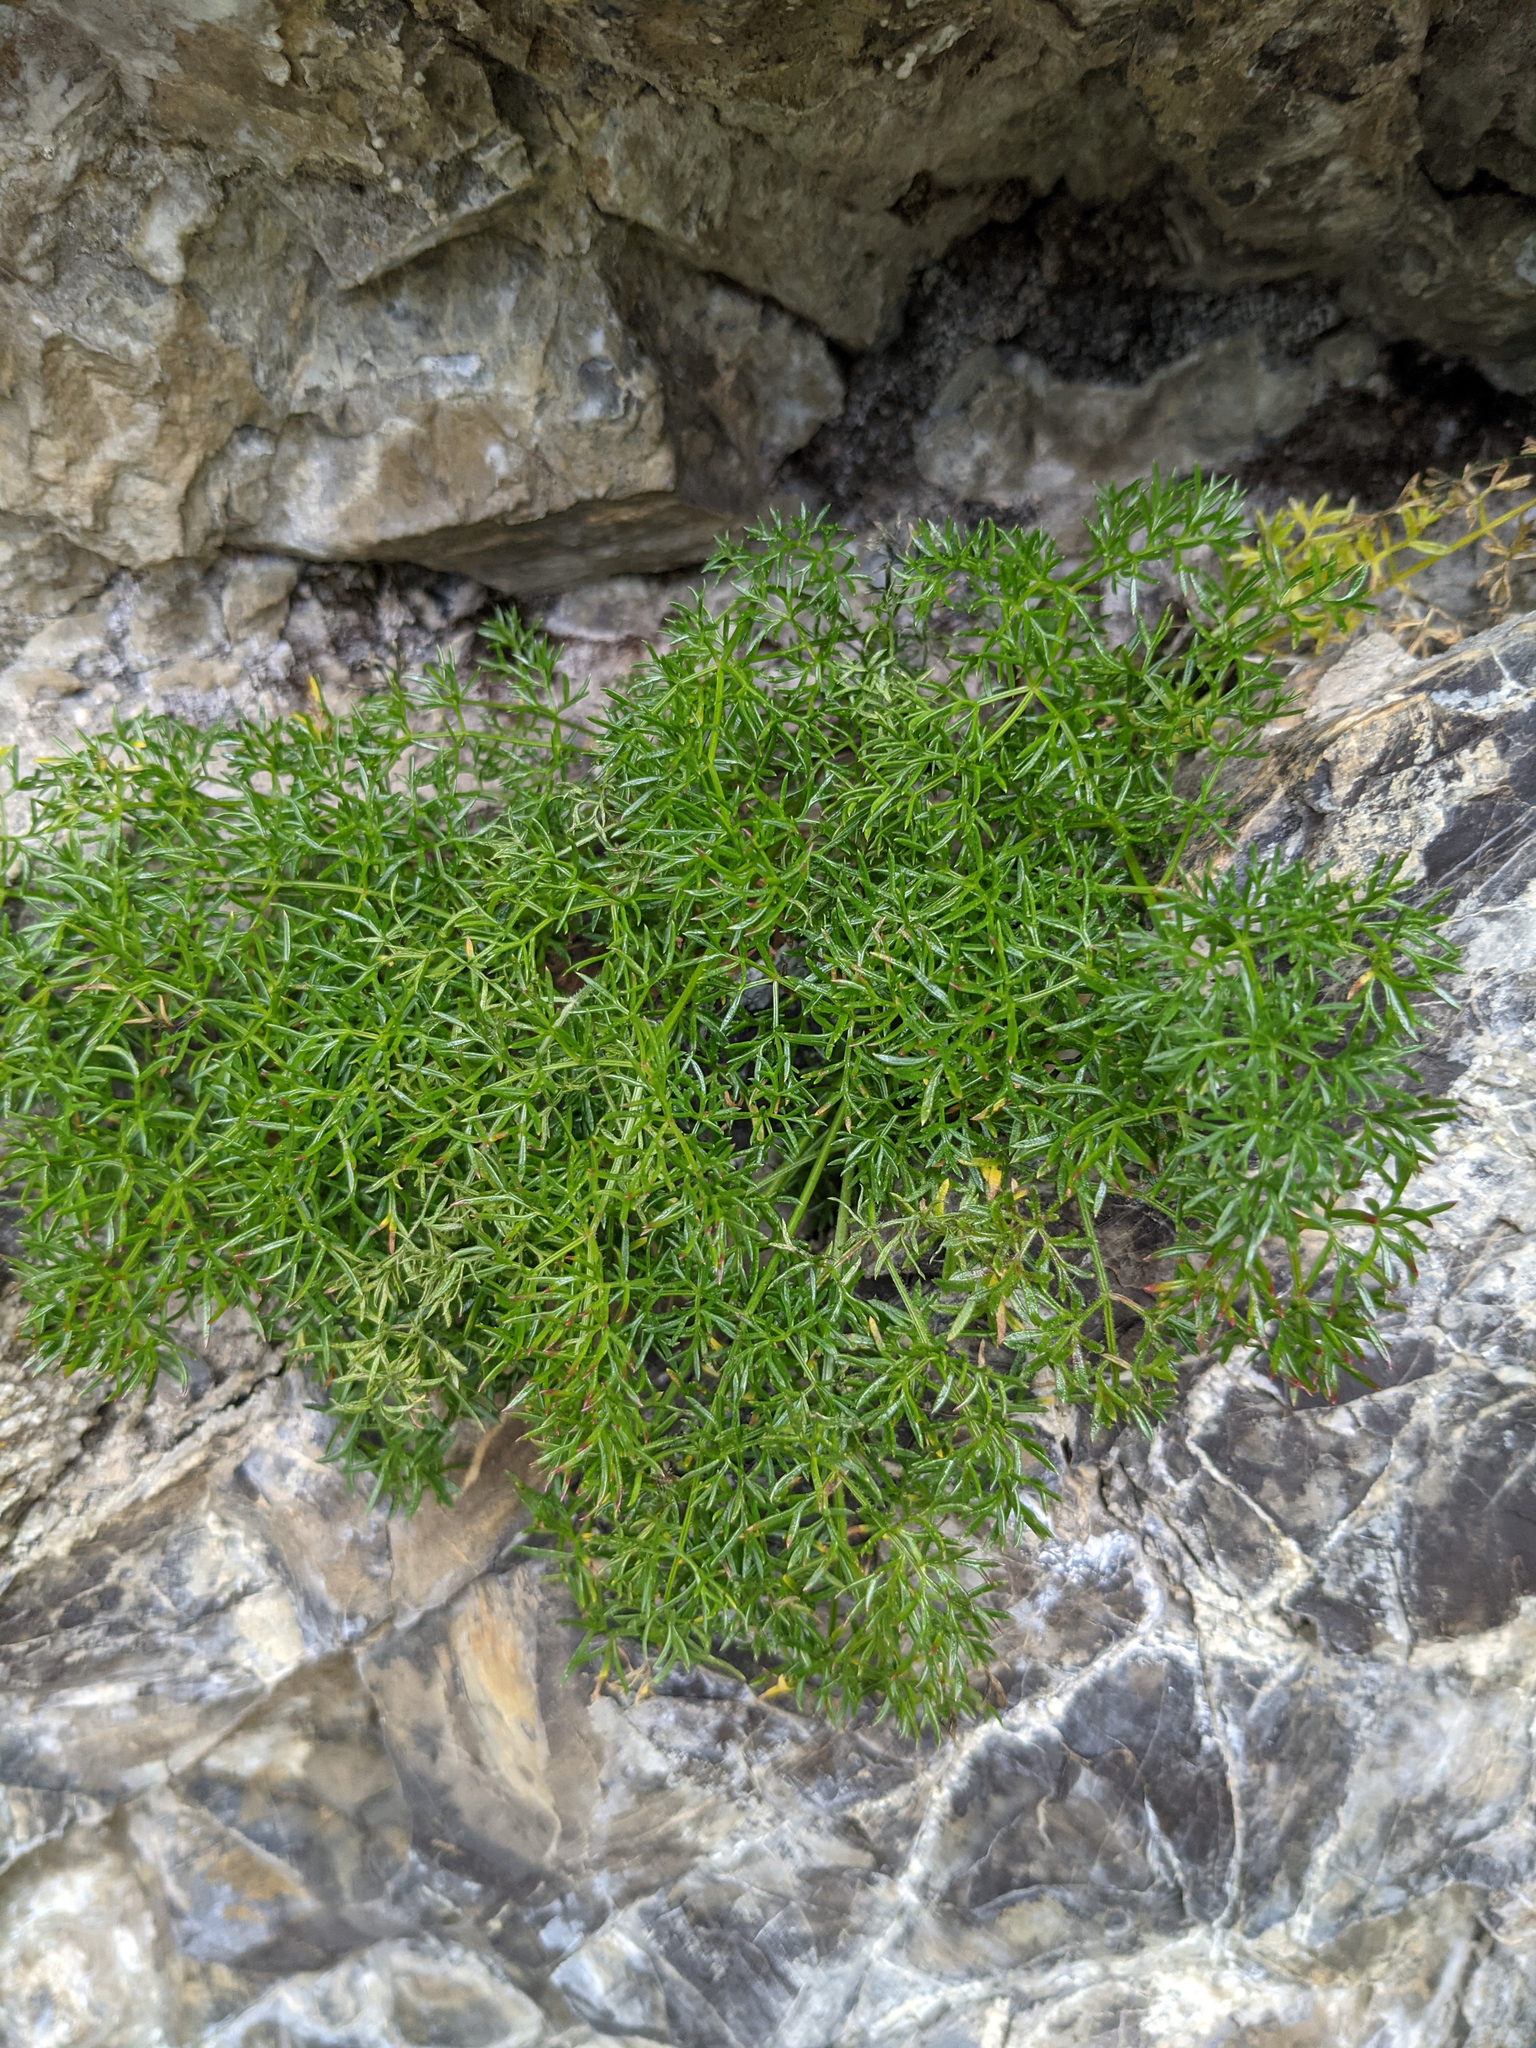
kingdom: Plantae
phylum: Tracheophyta
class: Magnoliopsida
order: Apiales
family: Apiaceae
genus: Athamanta
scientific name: Athamanta cretensis
